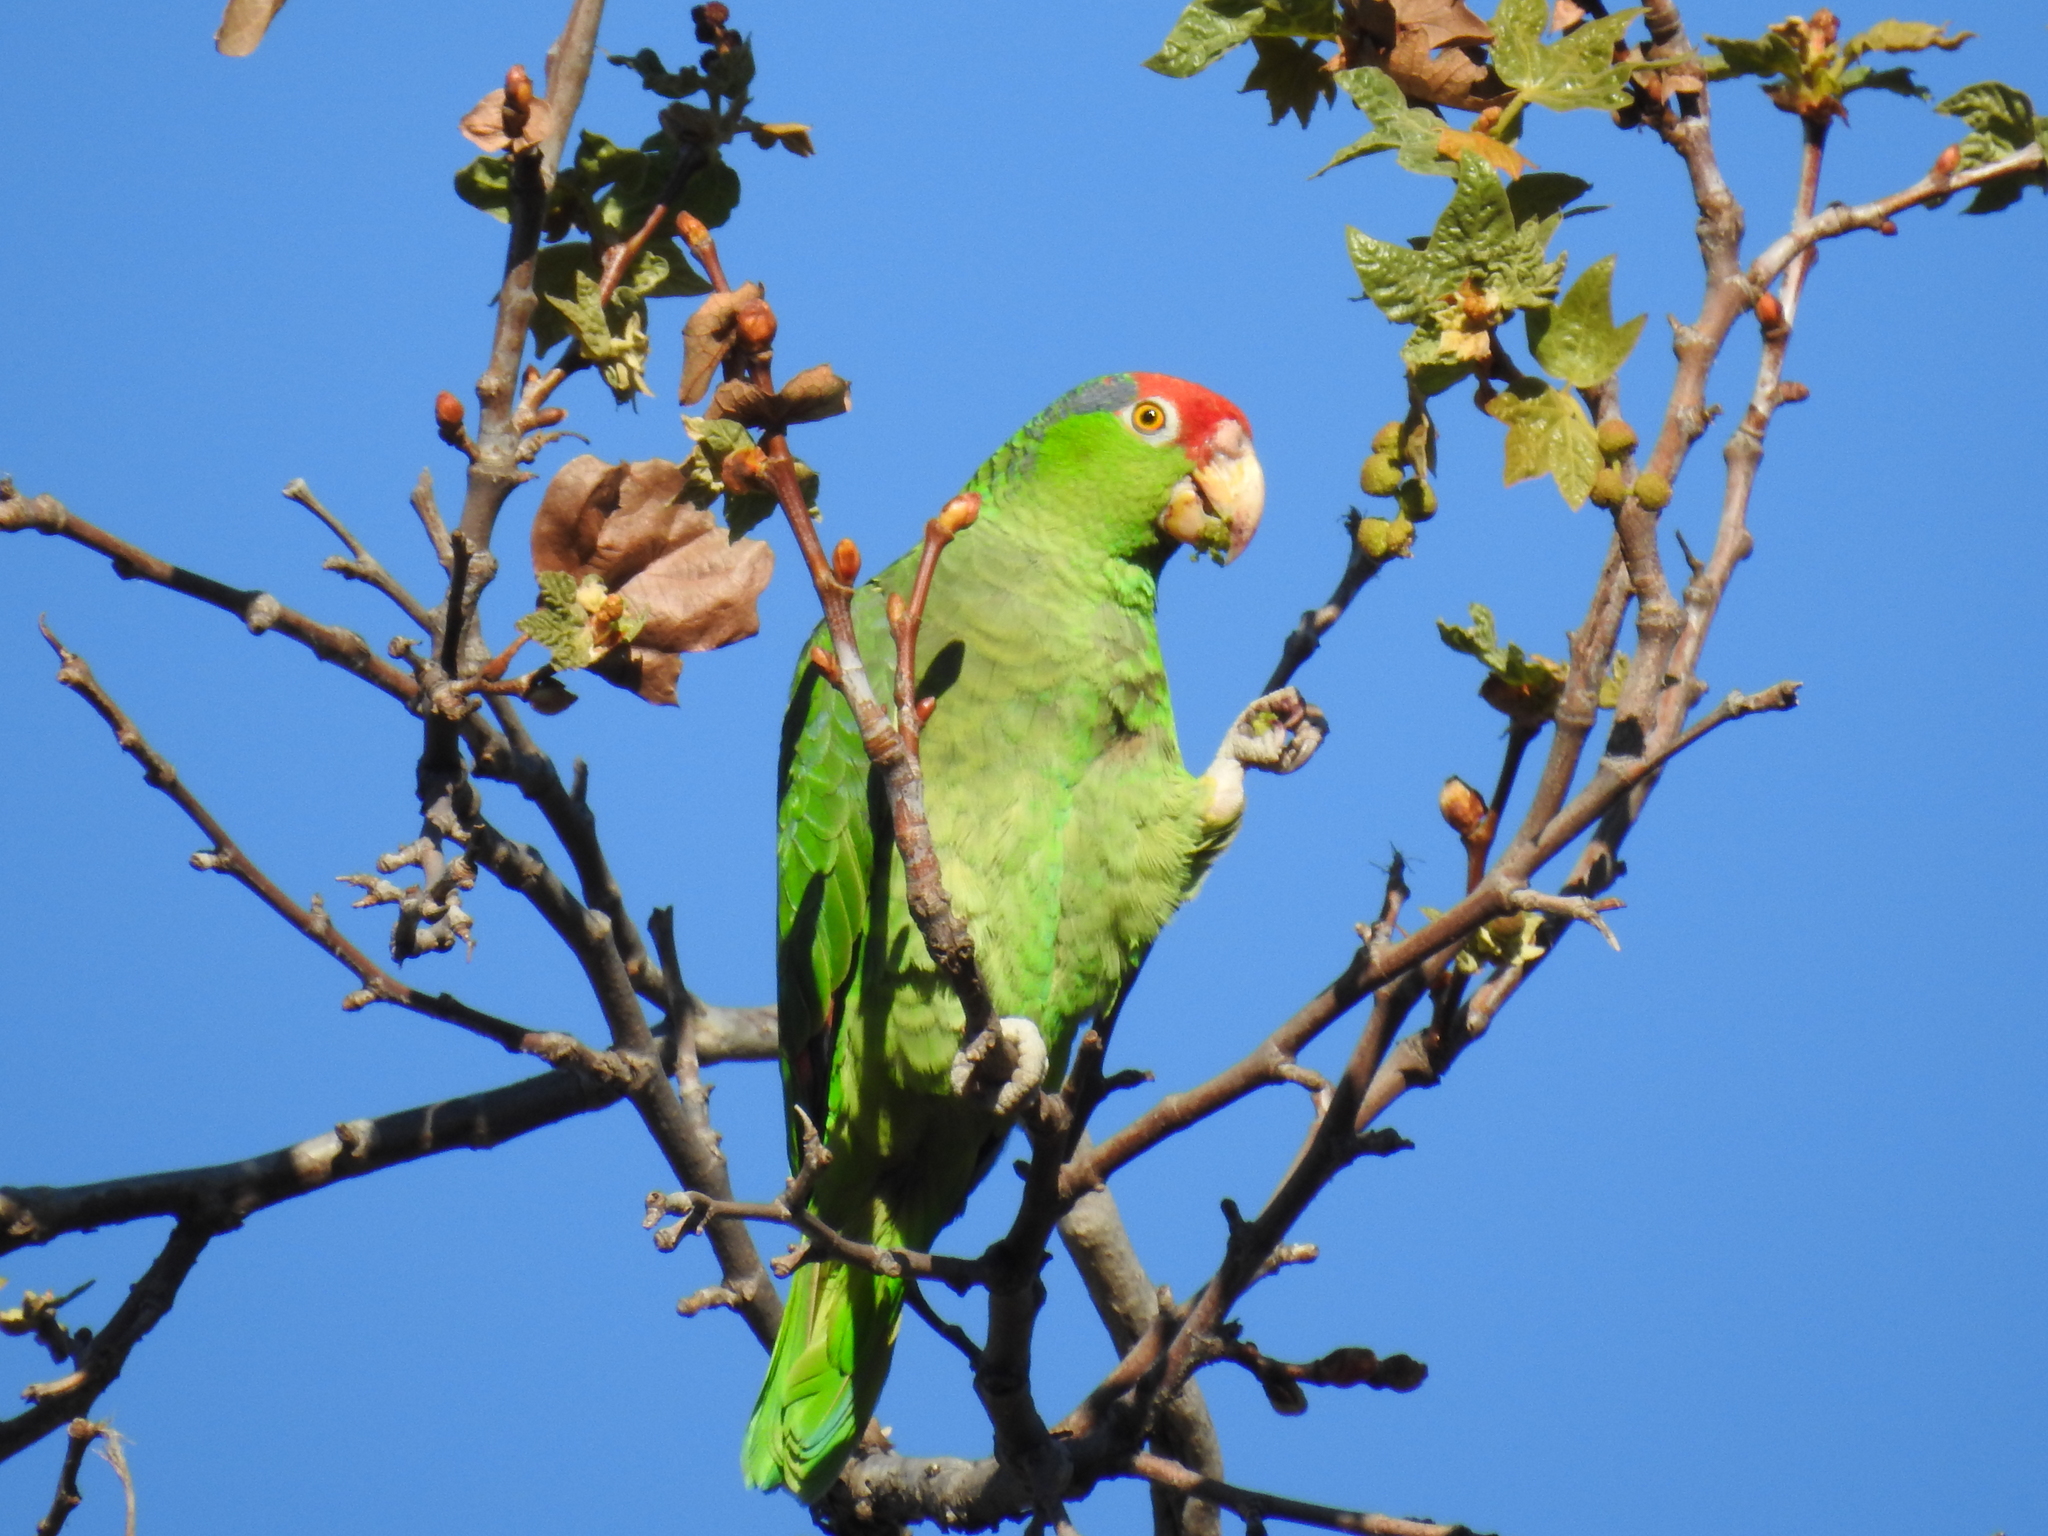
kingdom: Animalia
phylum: Chordata
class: Aves
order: Psittaciformes
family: Psittacidae
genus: Amazona
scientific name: Amazona viridigenalis
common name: Red-crowned amazon
